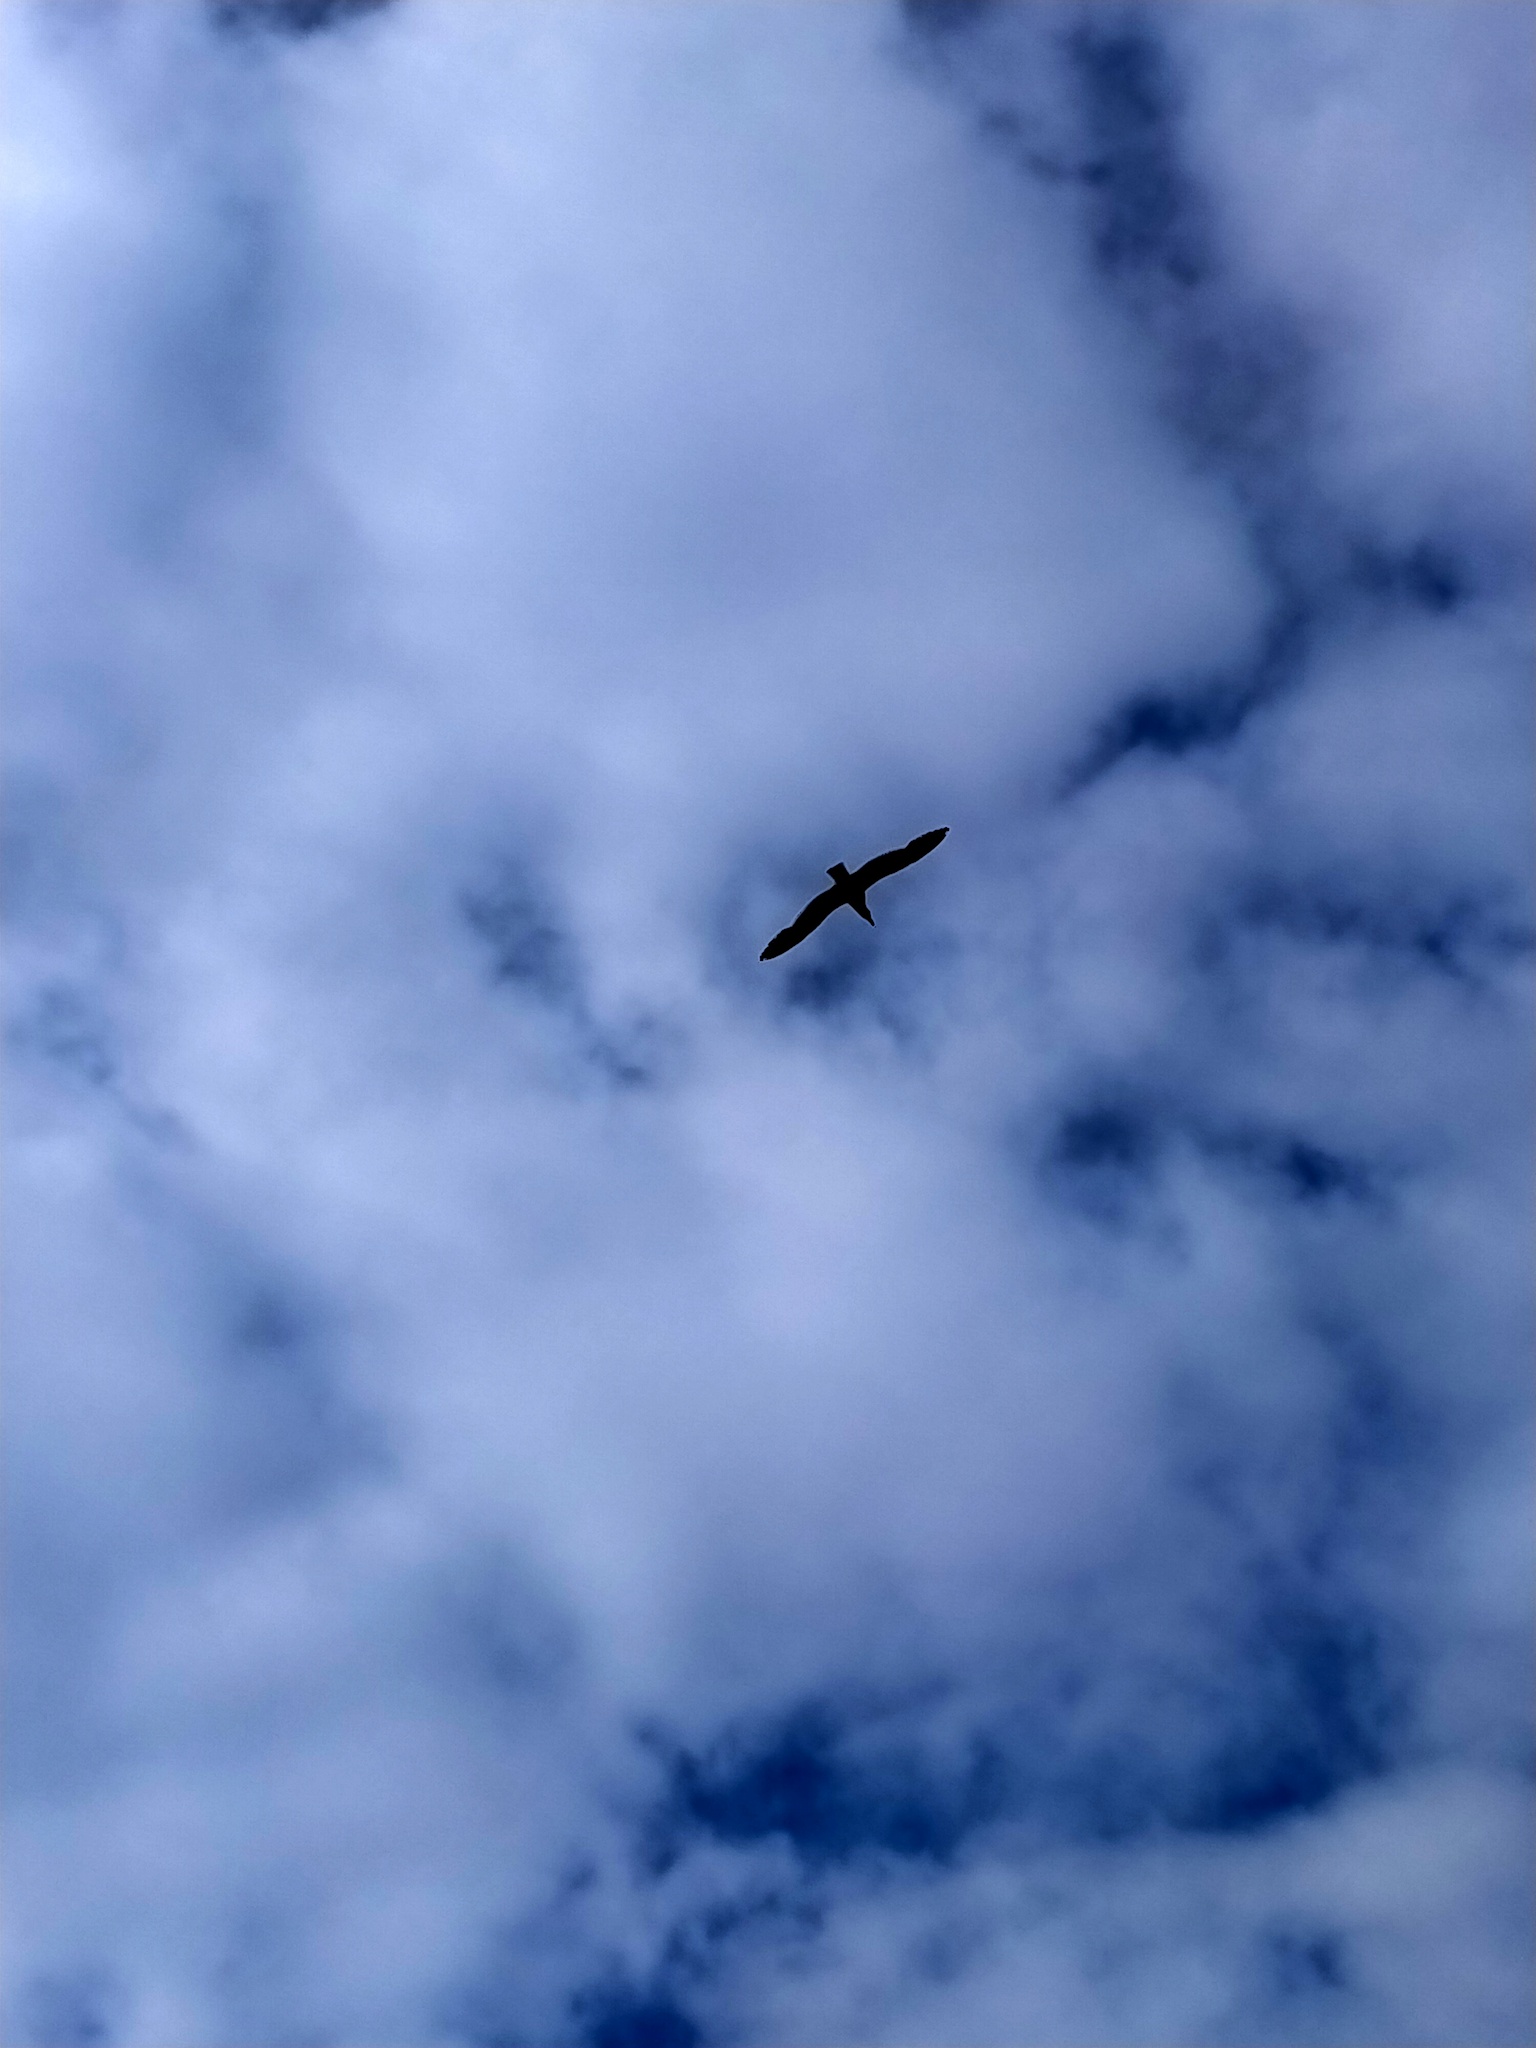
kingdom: Animalia
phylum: Chordata
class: Aves
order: Charadriiformes
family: Stercorariidae
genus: Stercorarius
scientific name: Stercorarius antarcticus
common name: Brown skua
